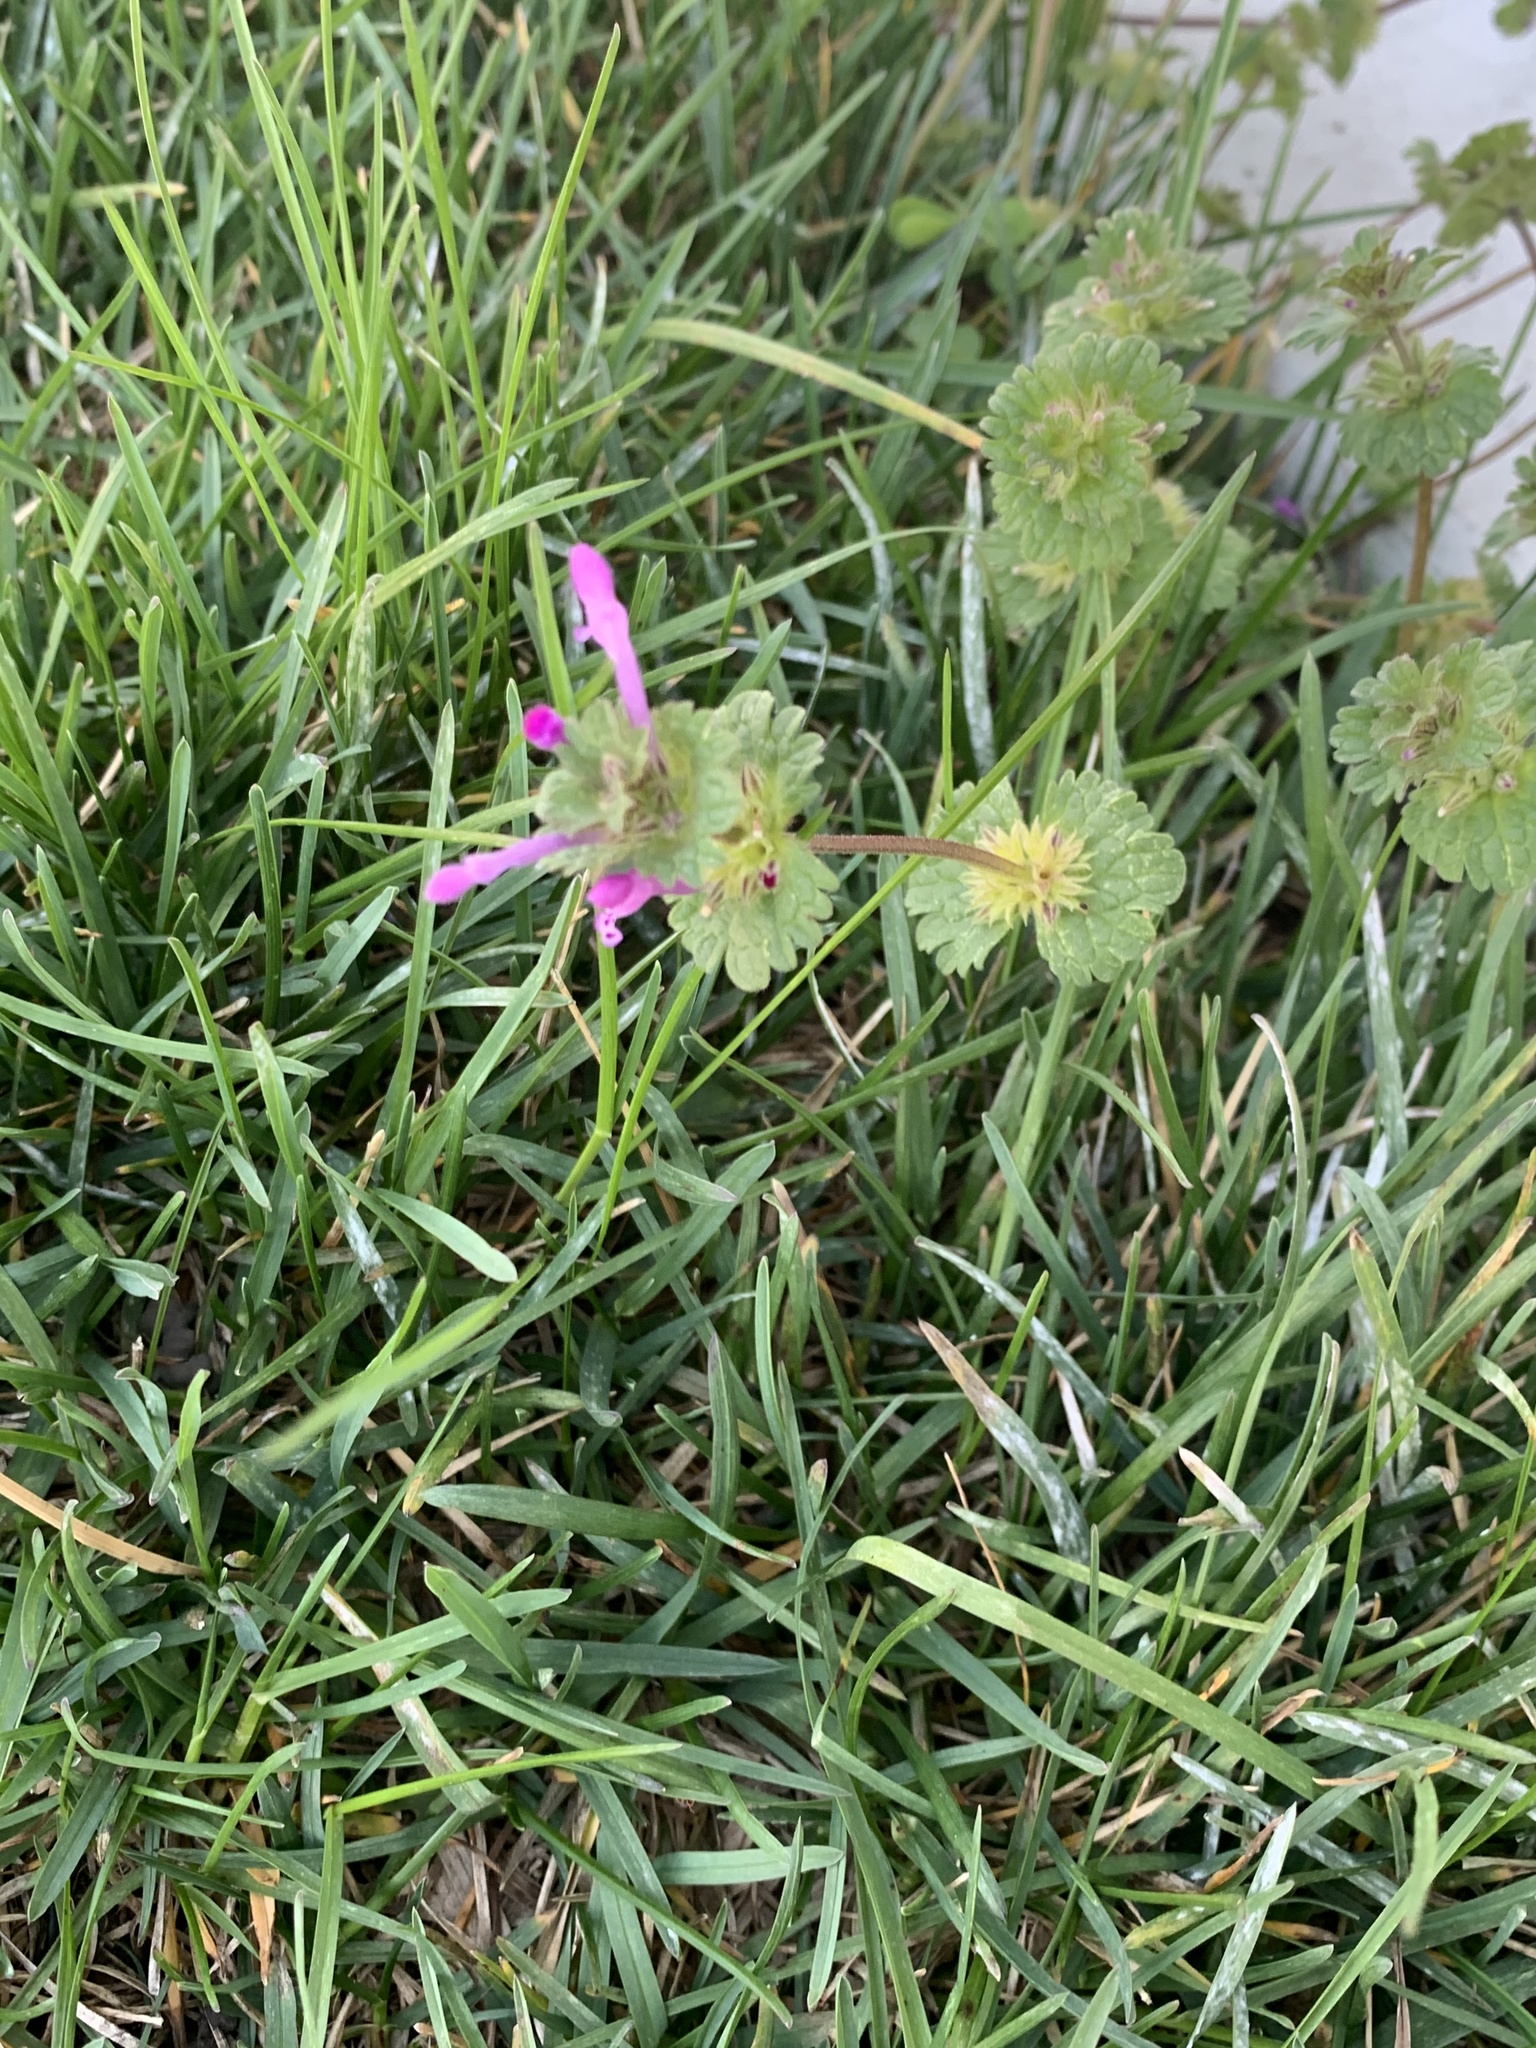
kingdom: Plantae
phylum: Tracheophyta
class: Magnoliopsida
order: Lamiales
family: Lamiaceae
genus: Lamium
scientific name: Lamium amplexicaule
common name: Henbit dead-nettle
